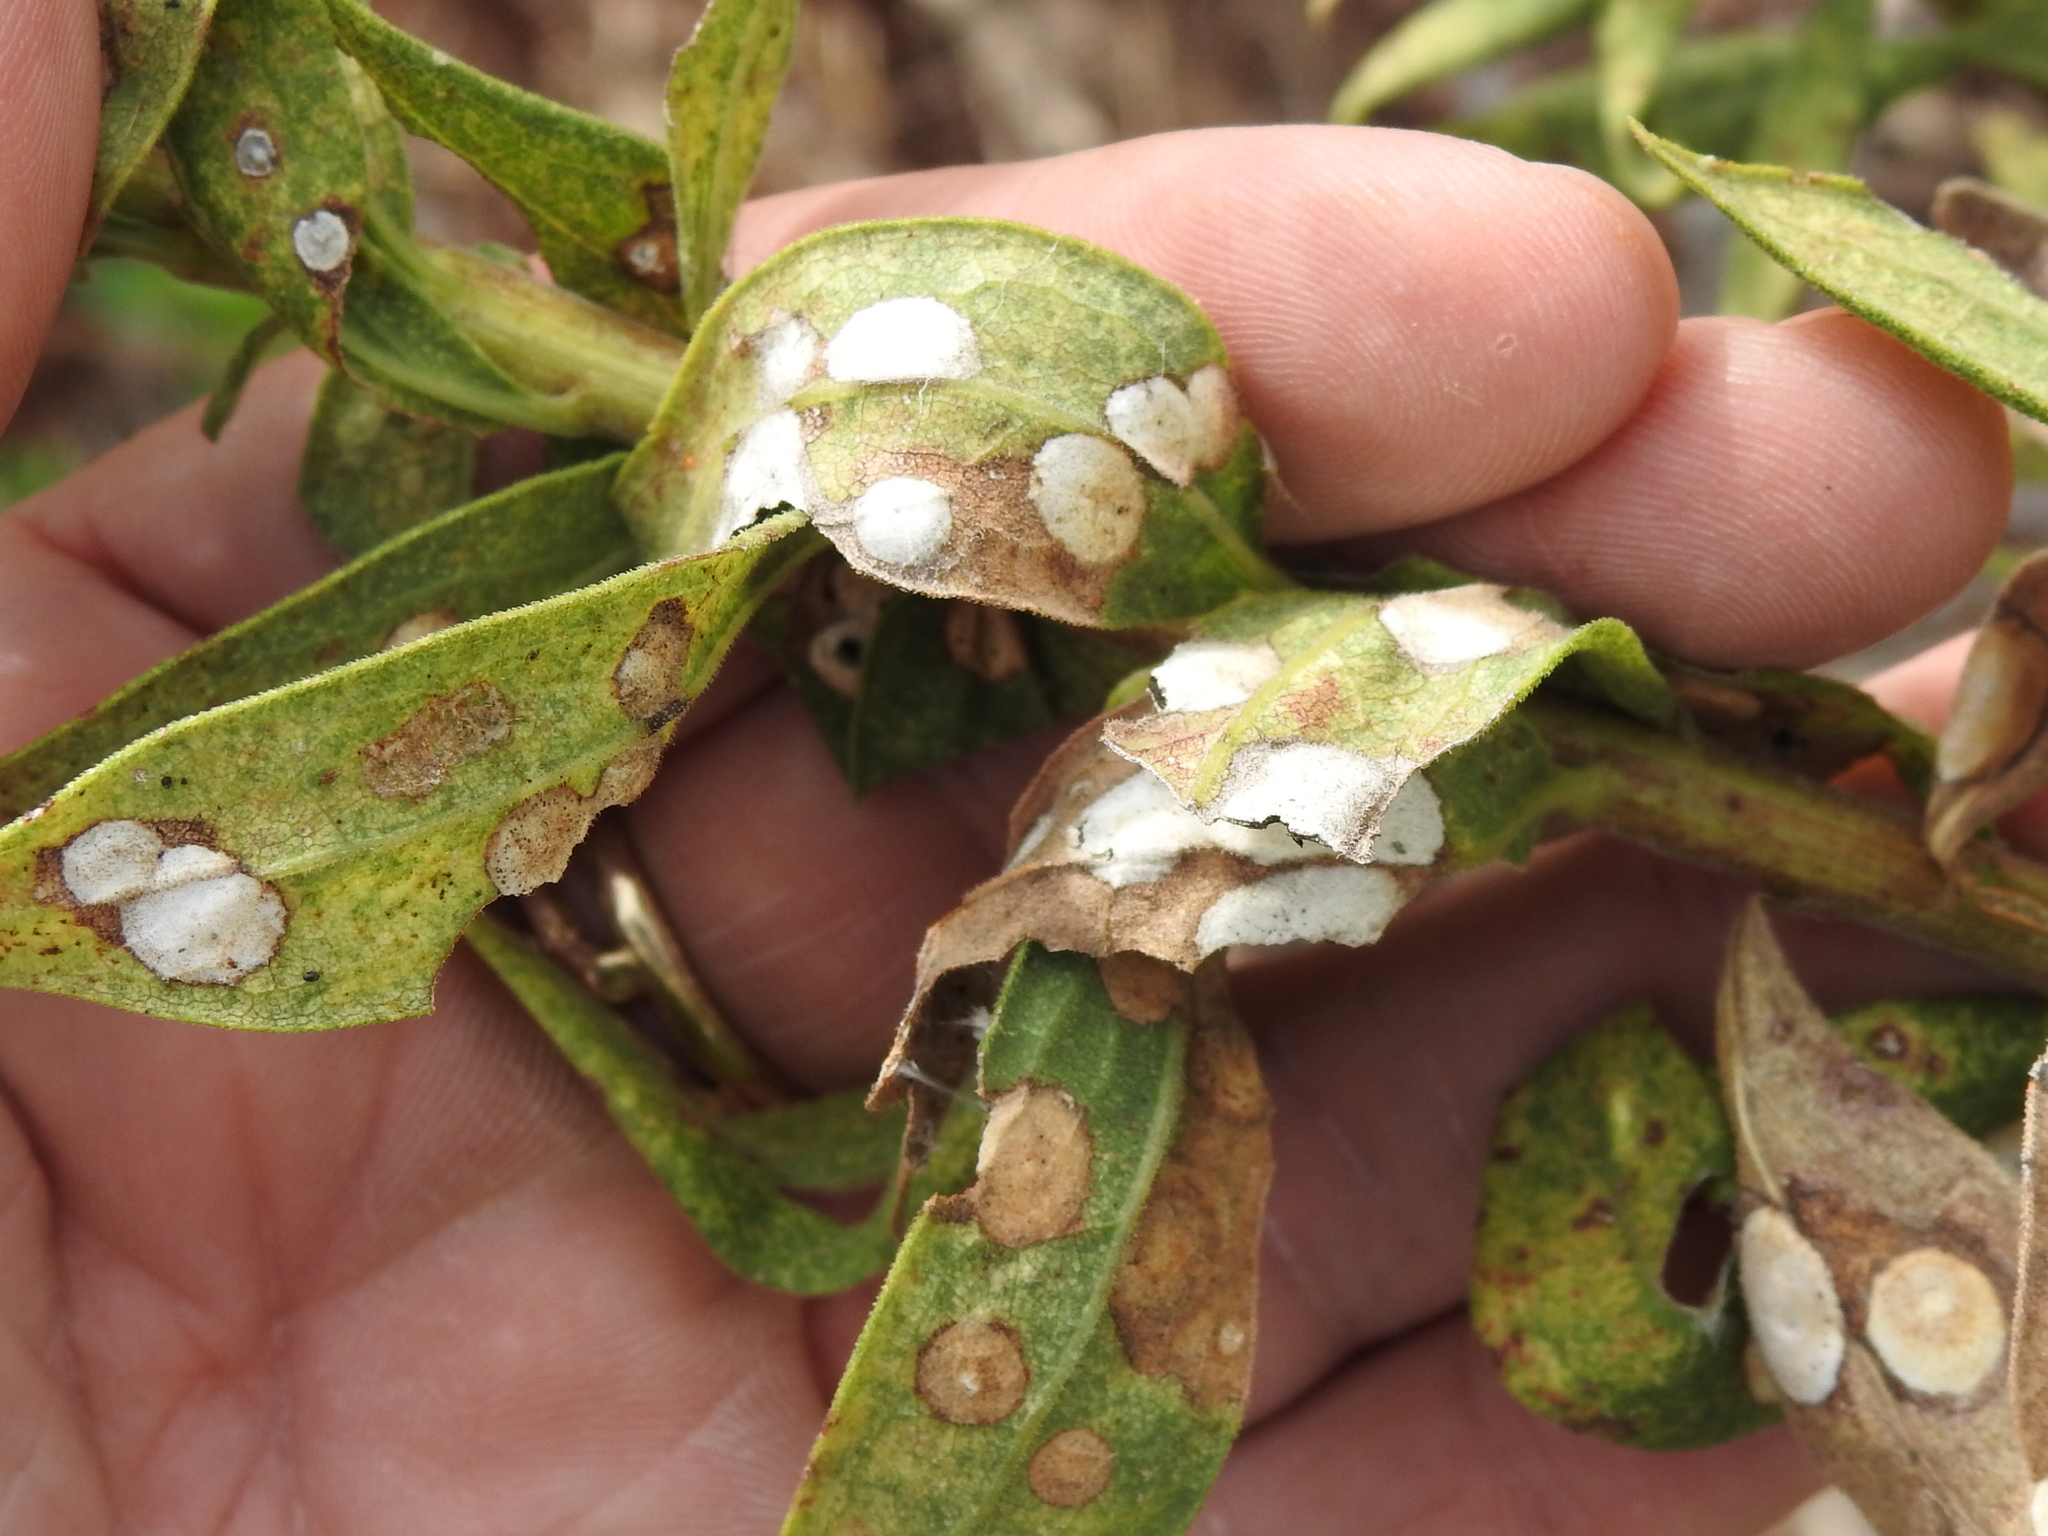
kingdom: Animalia
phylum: Arthropoda
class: Insecta
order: Diptera
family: Cecidomyiidae
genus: Asteromyia
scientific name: Asteromyia carbonifera
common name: Carbonifera goldenrod gall midge
